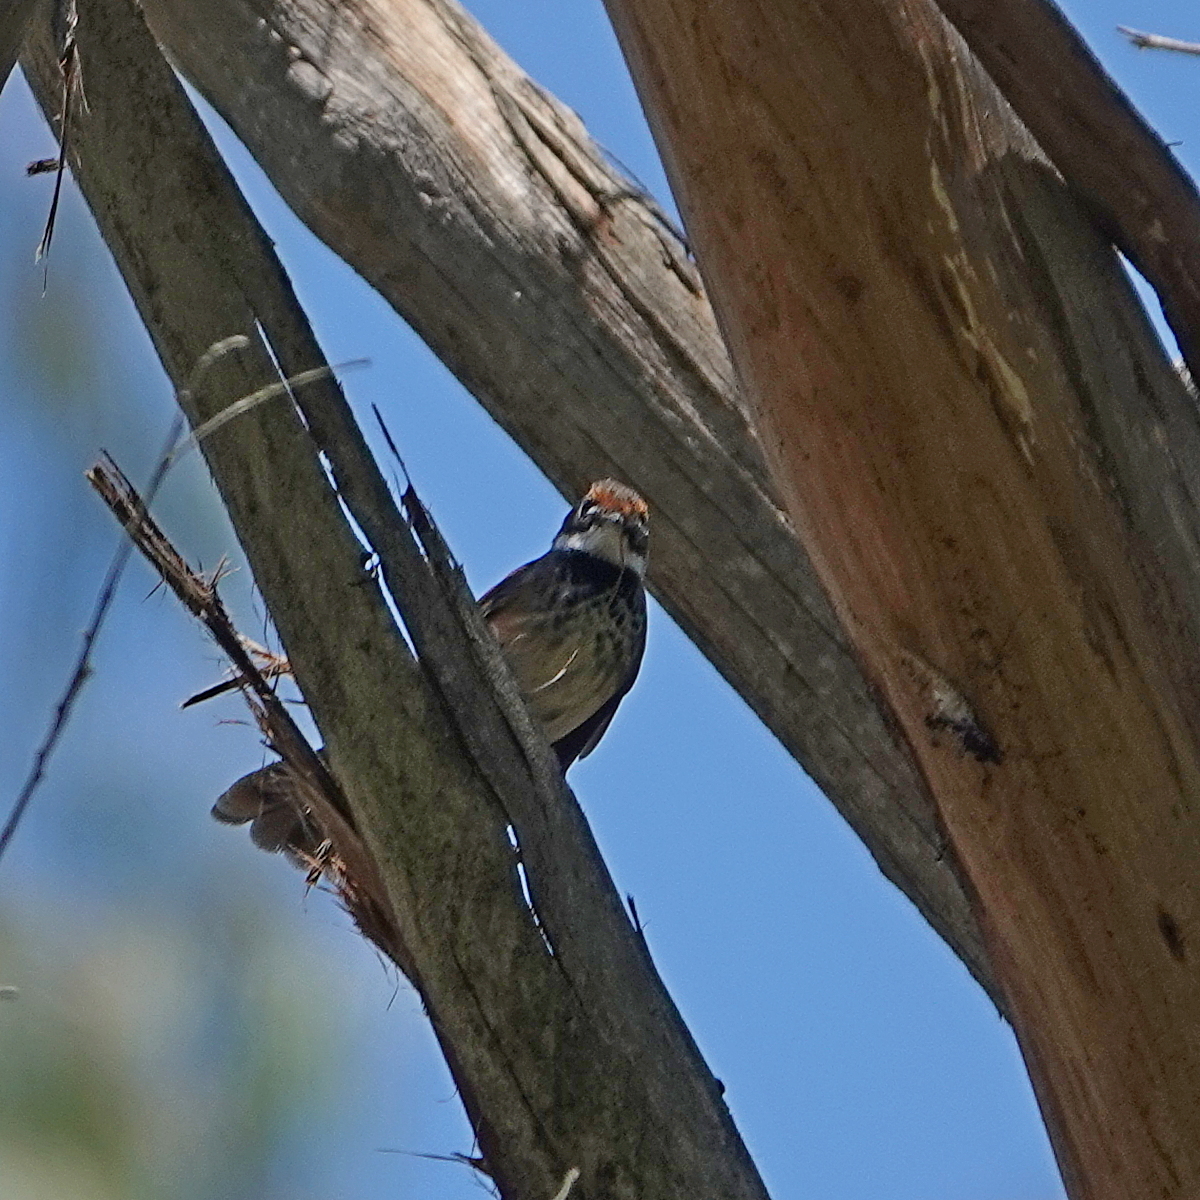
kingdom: Animalia
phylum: Chordata
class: Aves
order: Passeriformes
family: Rhipiduridae
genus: Rhipidura
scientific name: Rhipidura rufifrons
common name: Rufous fantail
